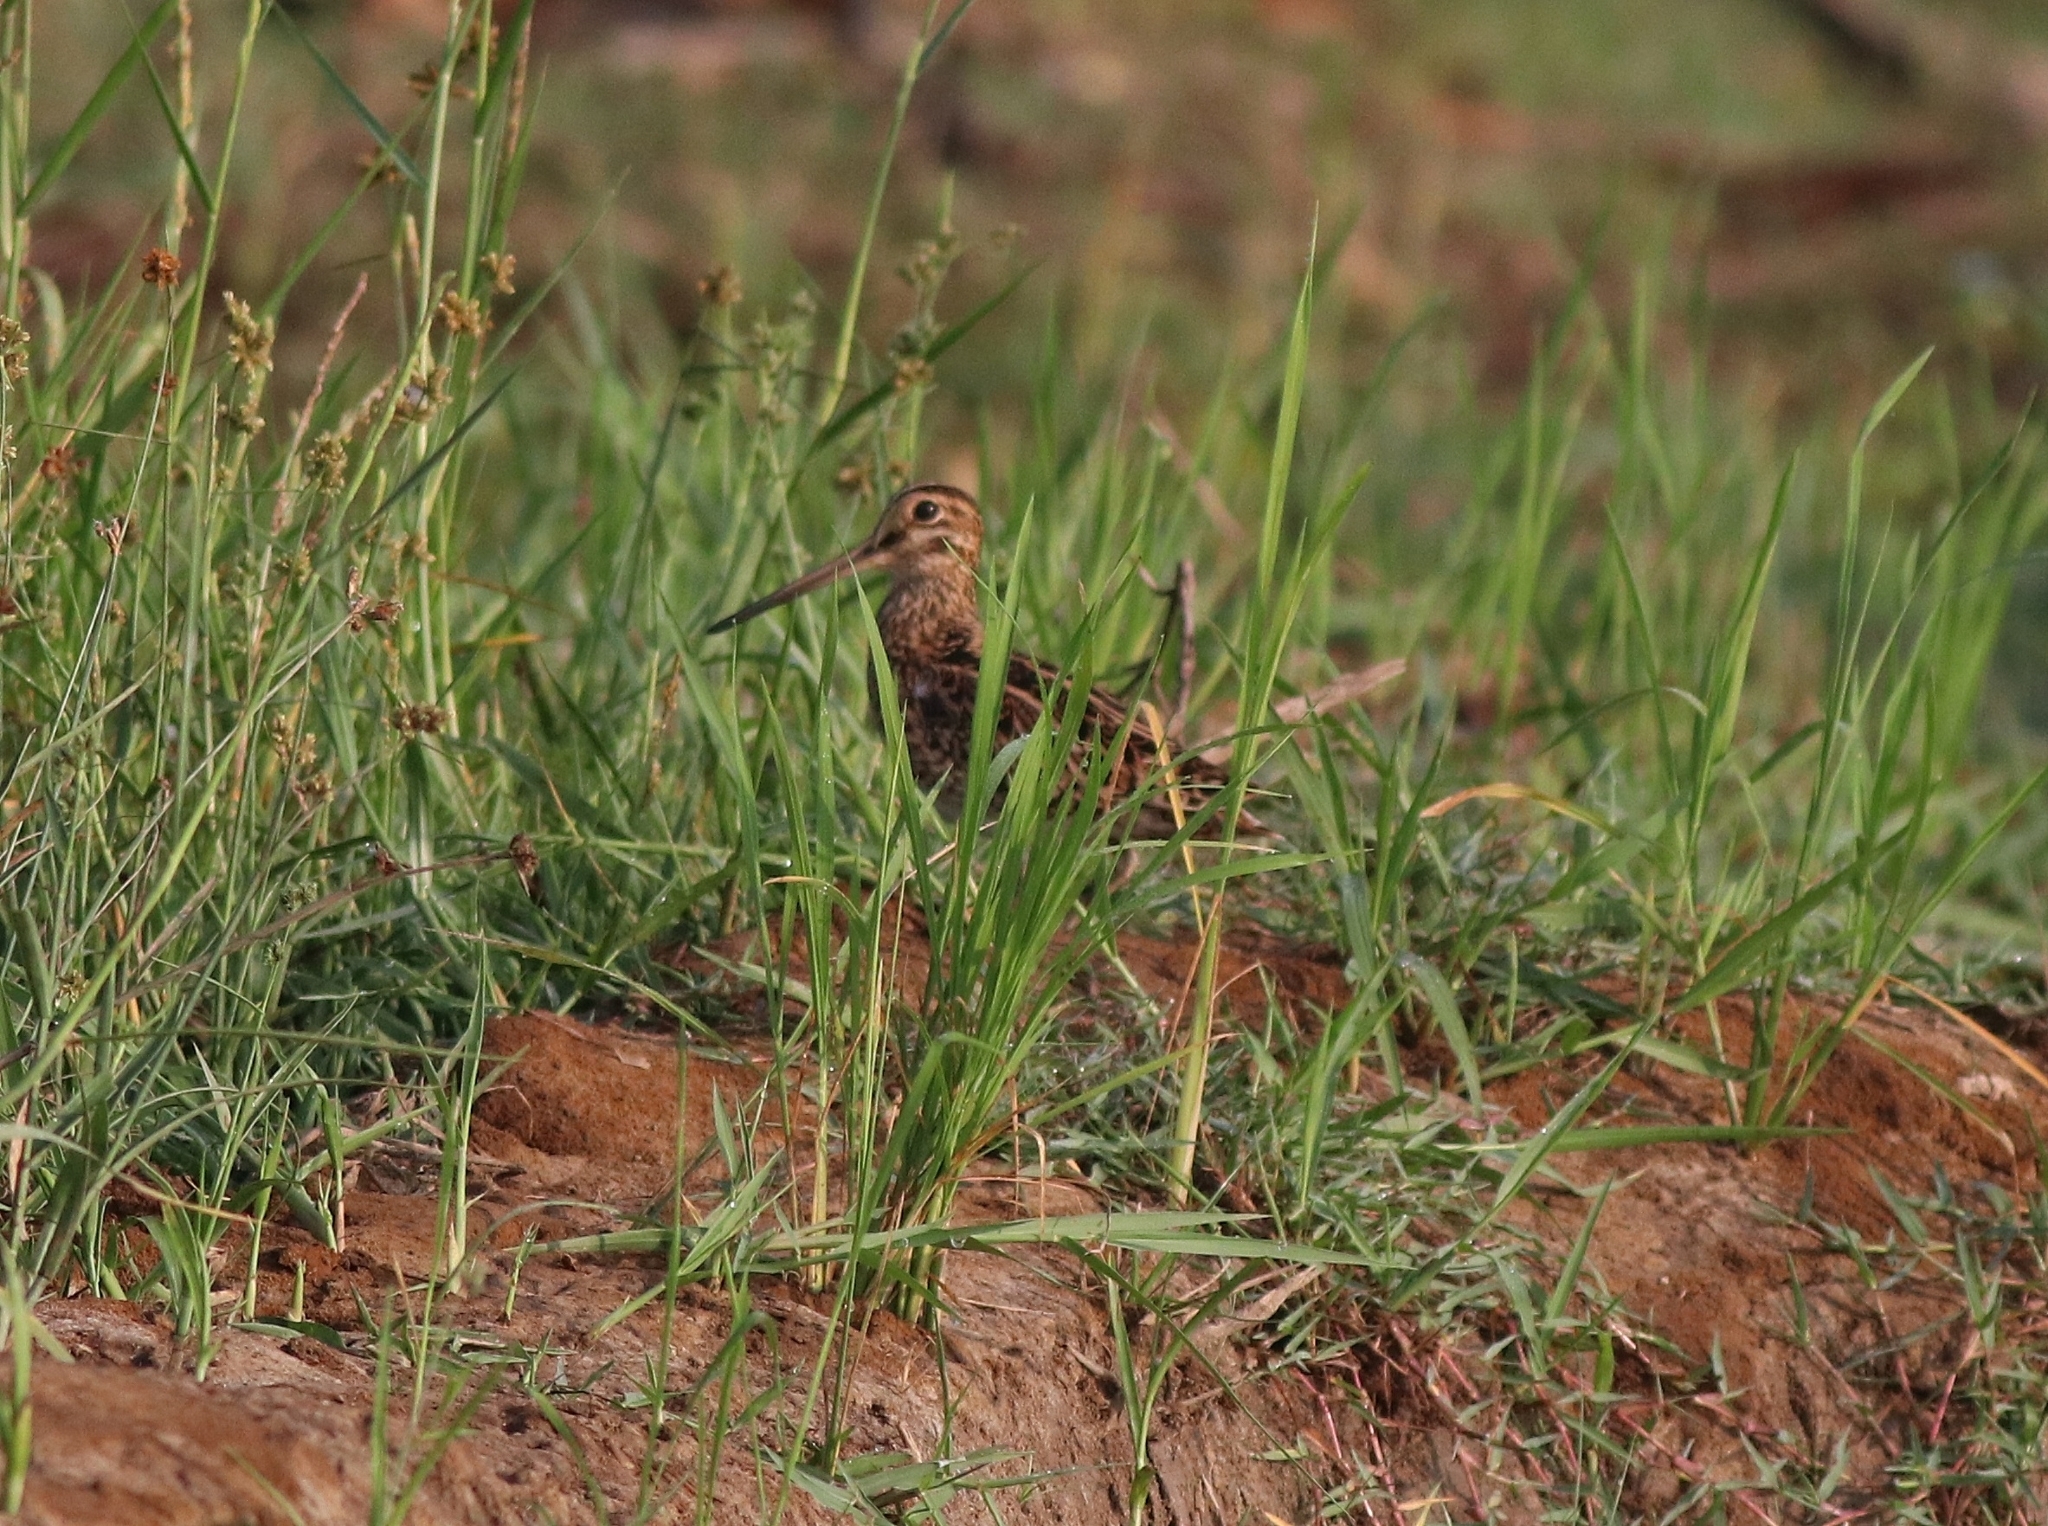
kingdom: Animalia
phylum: Chordata
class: Aves
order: Charadriiformes
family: Scolopacidae
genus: Gallinago
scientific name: Gallinago stenura
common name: Pin-tailed snipe
